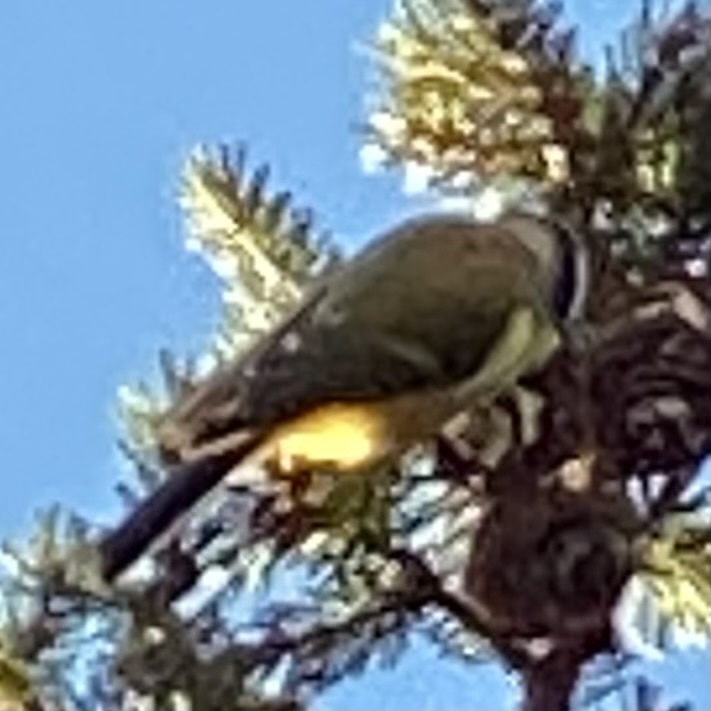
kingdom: Animalia
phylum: Chordata
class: Aves
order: Passeriformes
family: Paridae
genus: Parus
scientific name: Parus major
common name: Great tit
